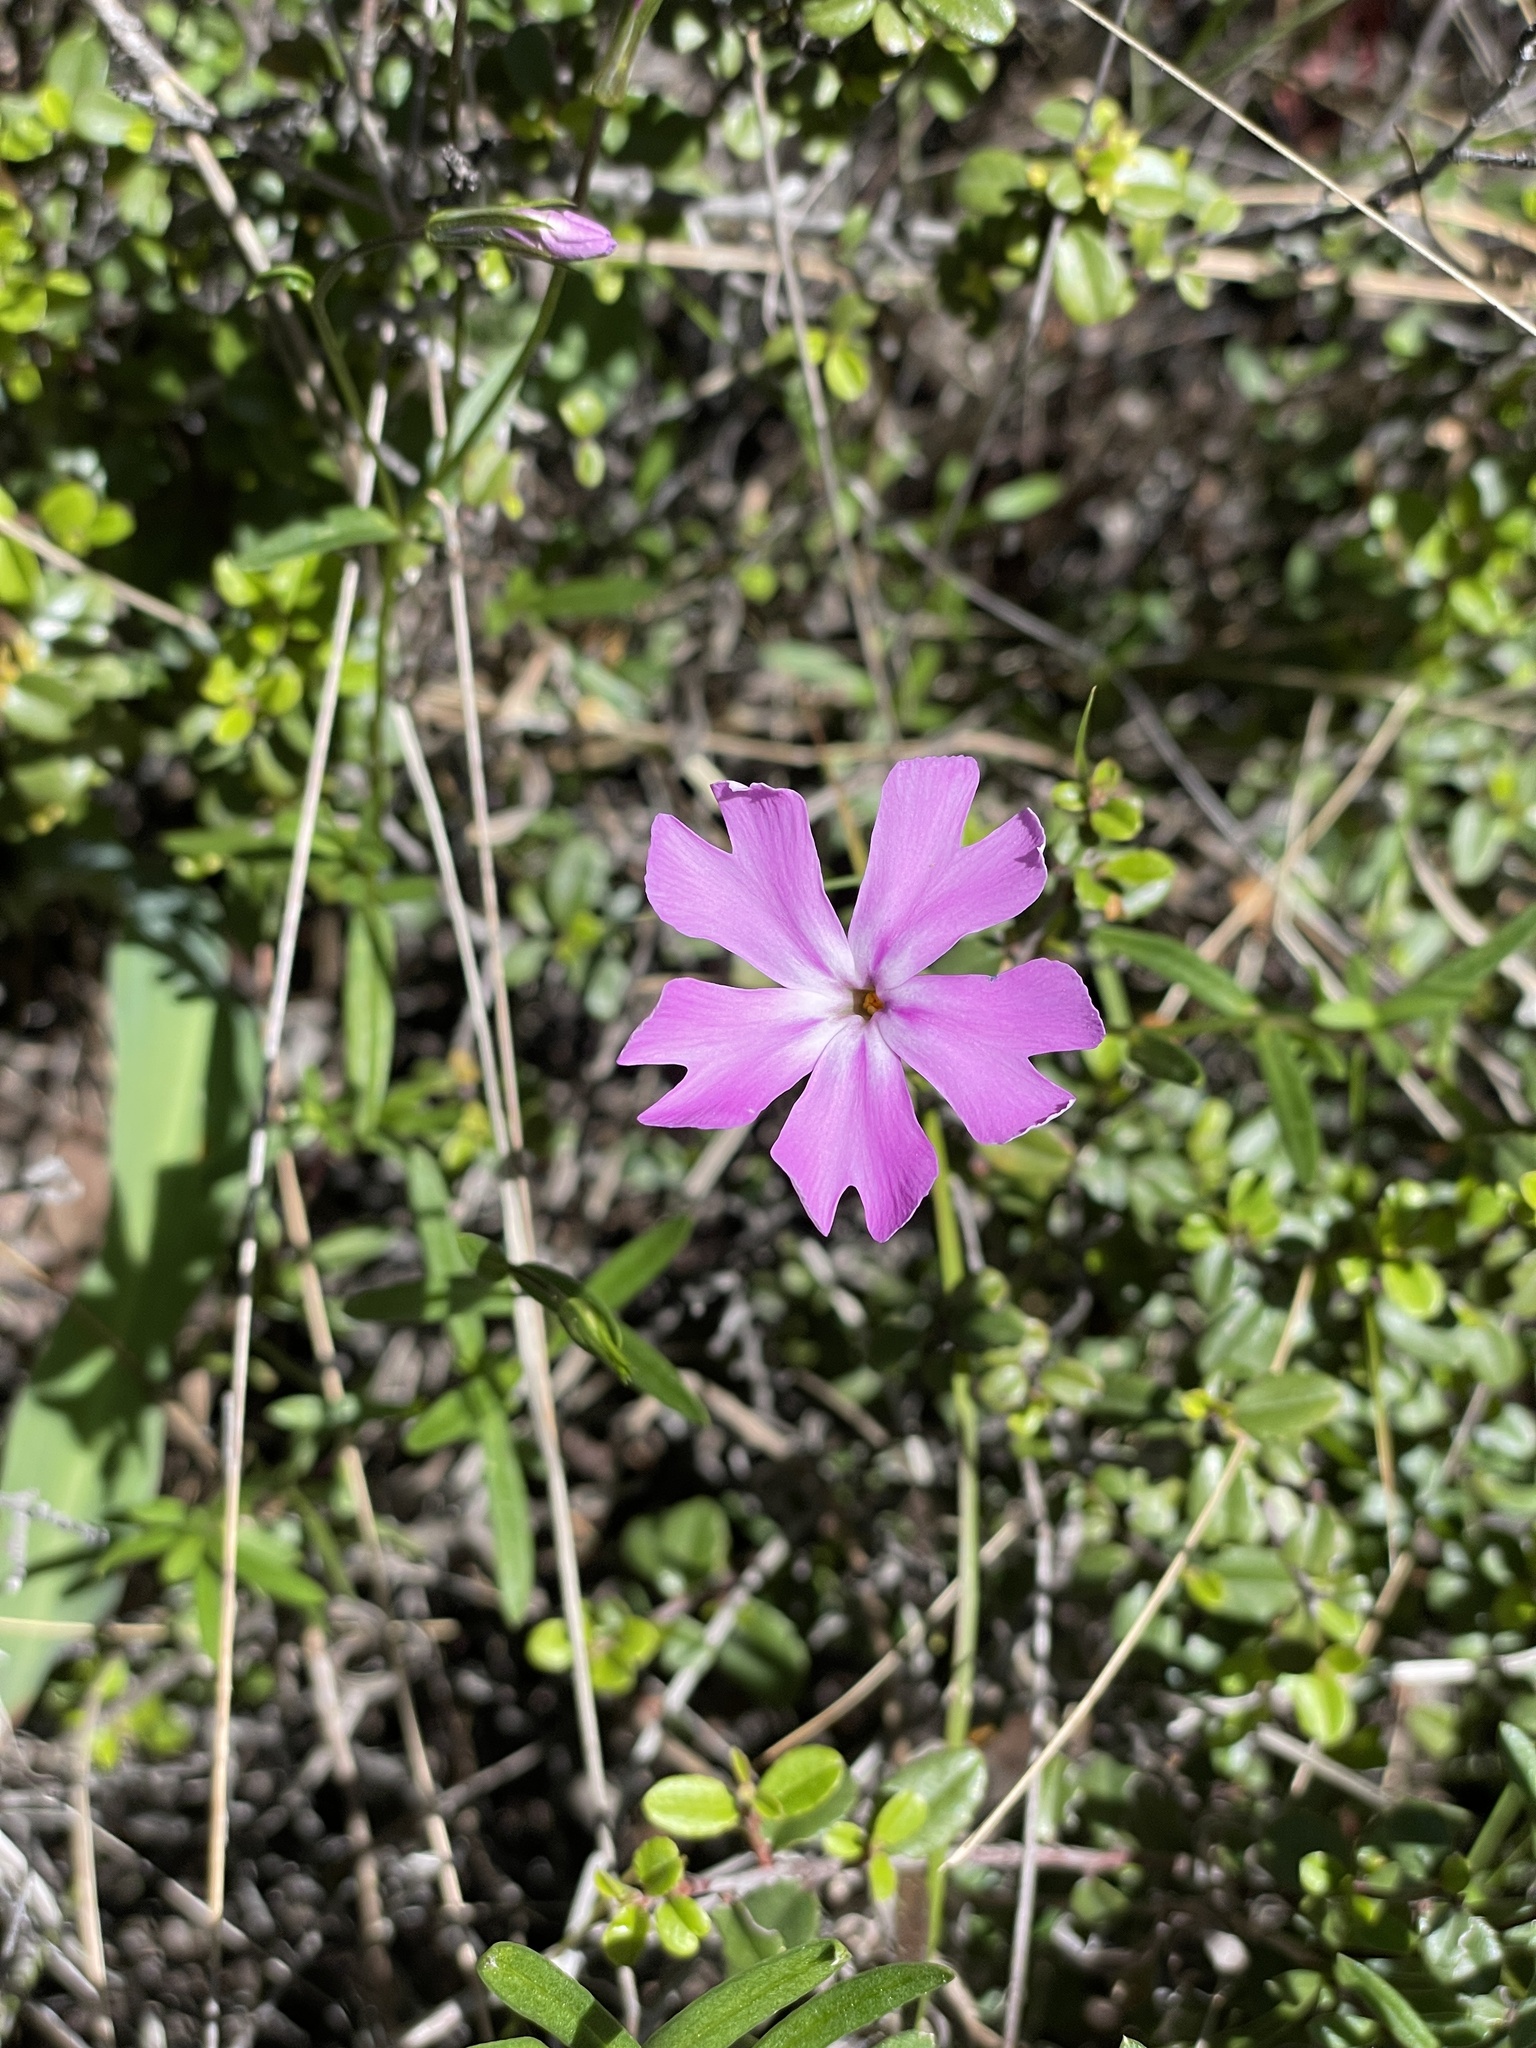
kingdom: Plantae
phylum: Tracheophyta
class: Magnoliopsida
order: Ericales
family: Polemoniaceae
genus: Phlox
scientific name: Phlox speciosa
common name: Bush phlox
